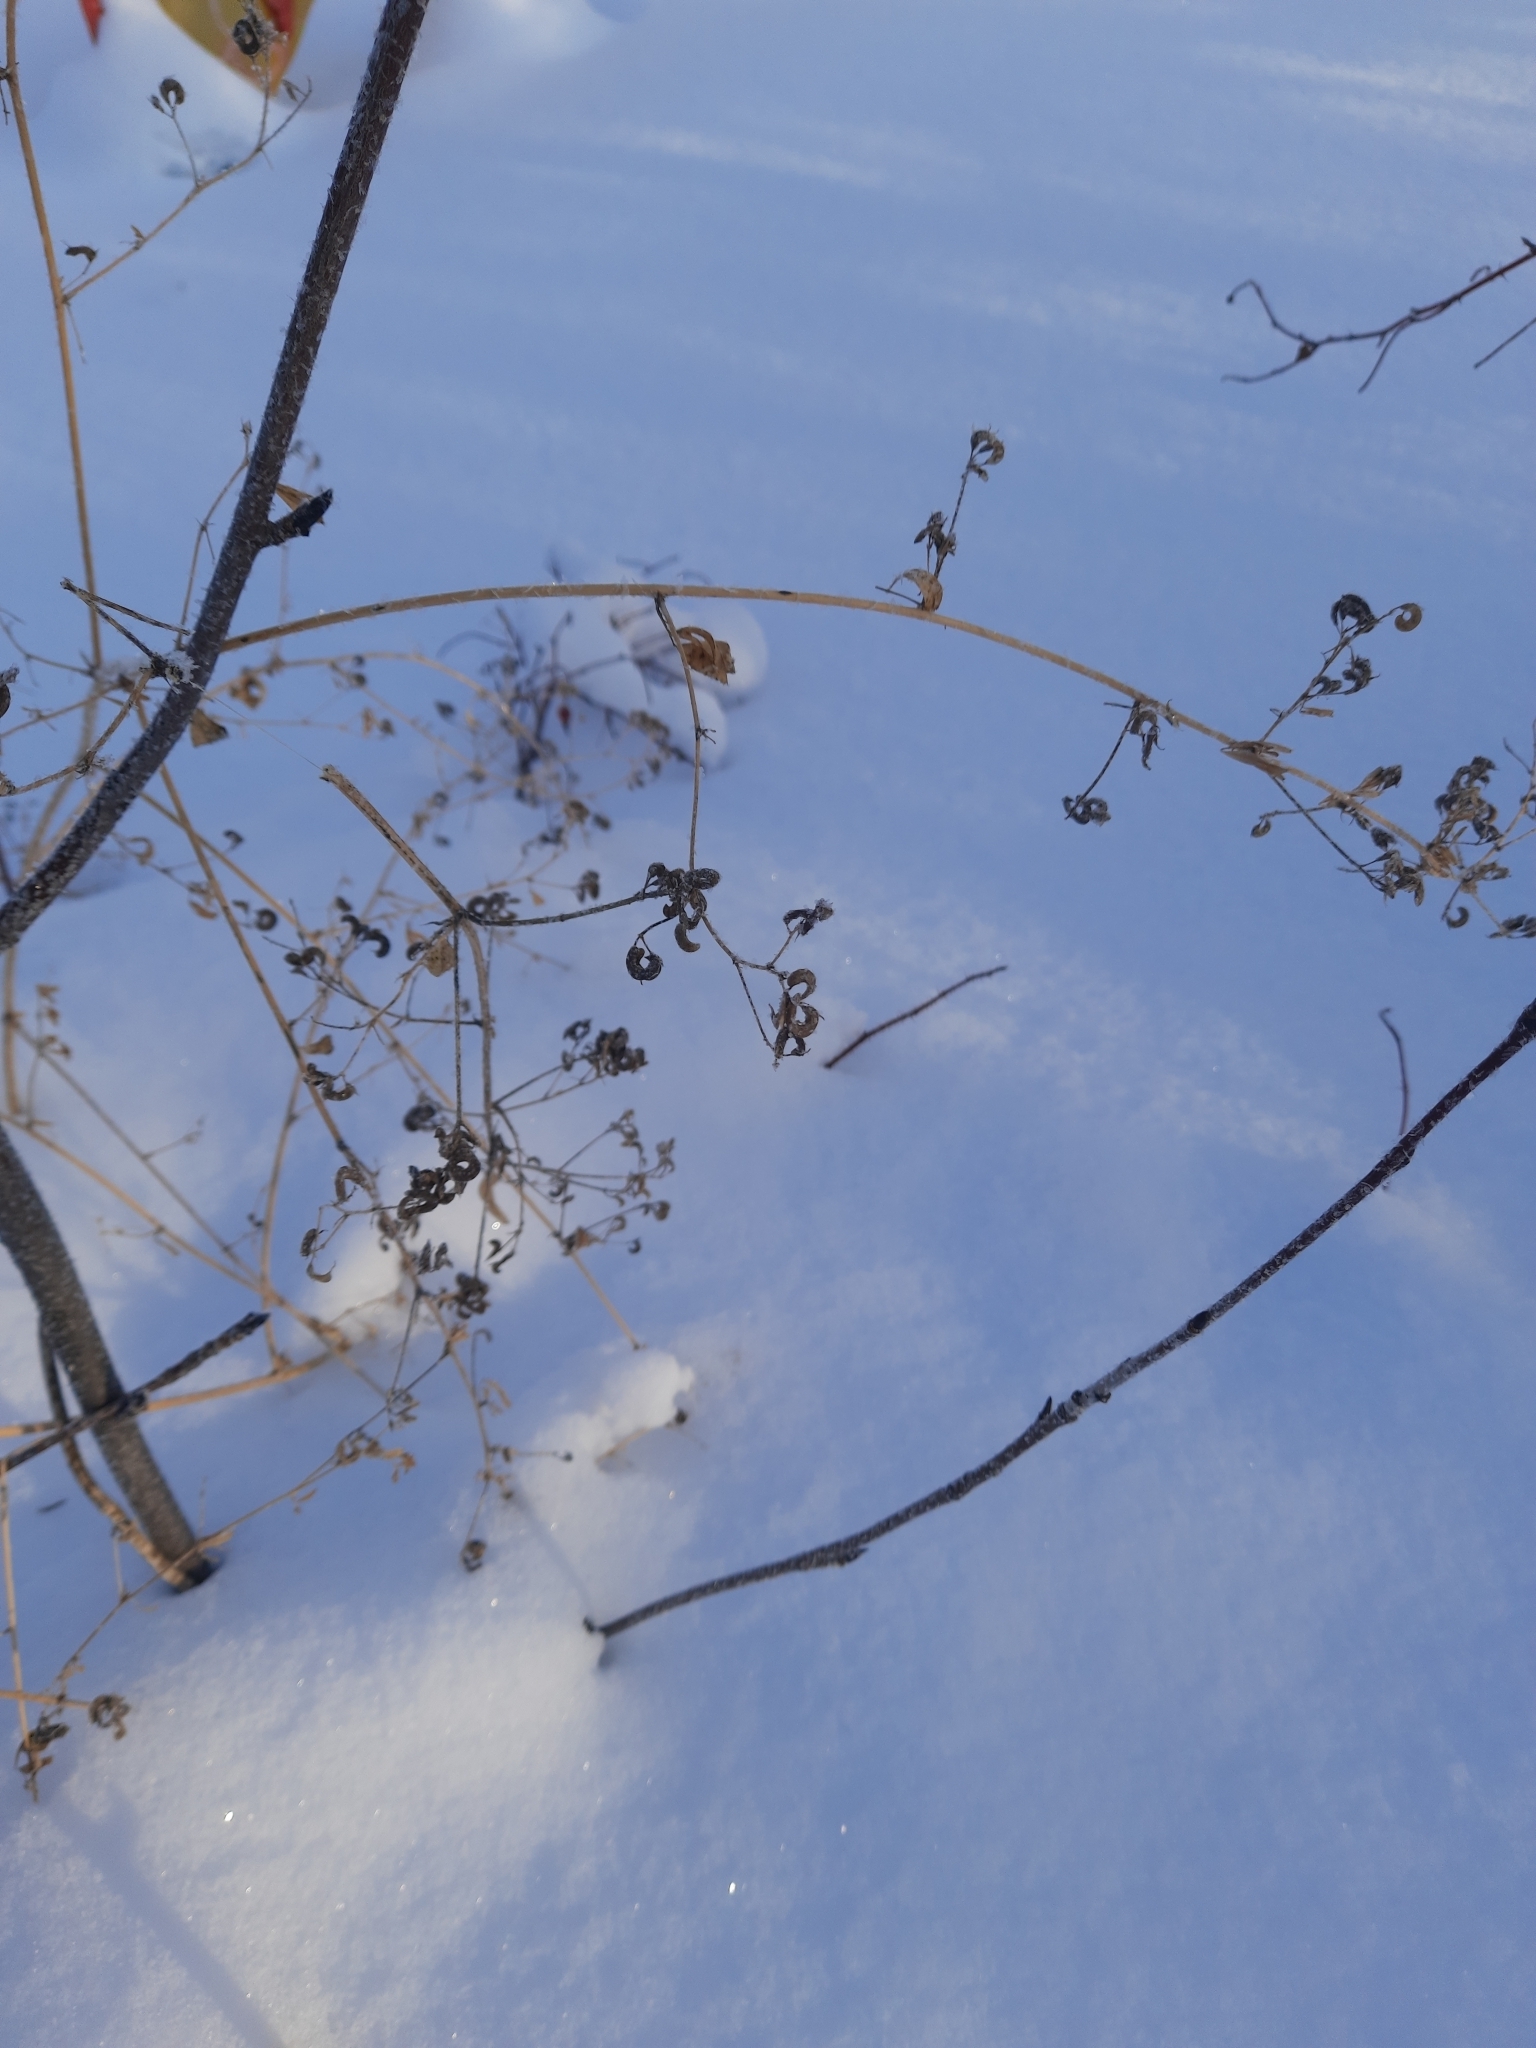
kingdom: Plantae
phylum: Tracheophyta
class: Magnoliopsida
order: Fabales
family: Fabaceae
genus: Medicago
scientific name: Medicago falcata
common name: Sickle medick
